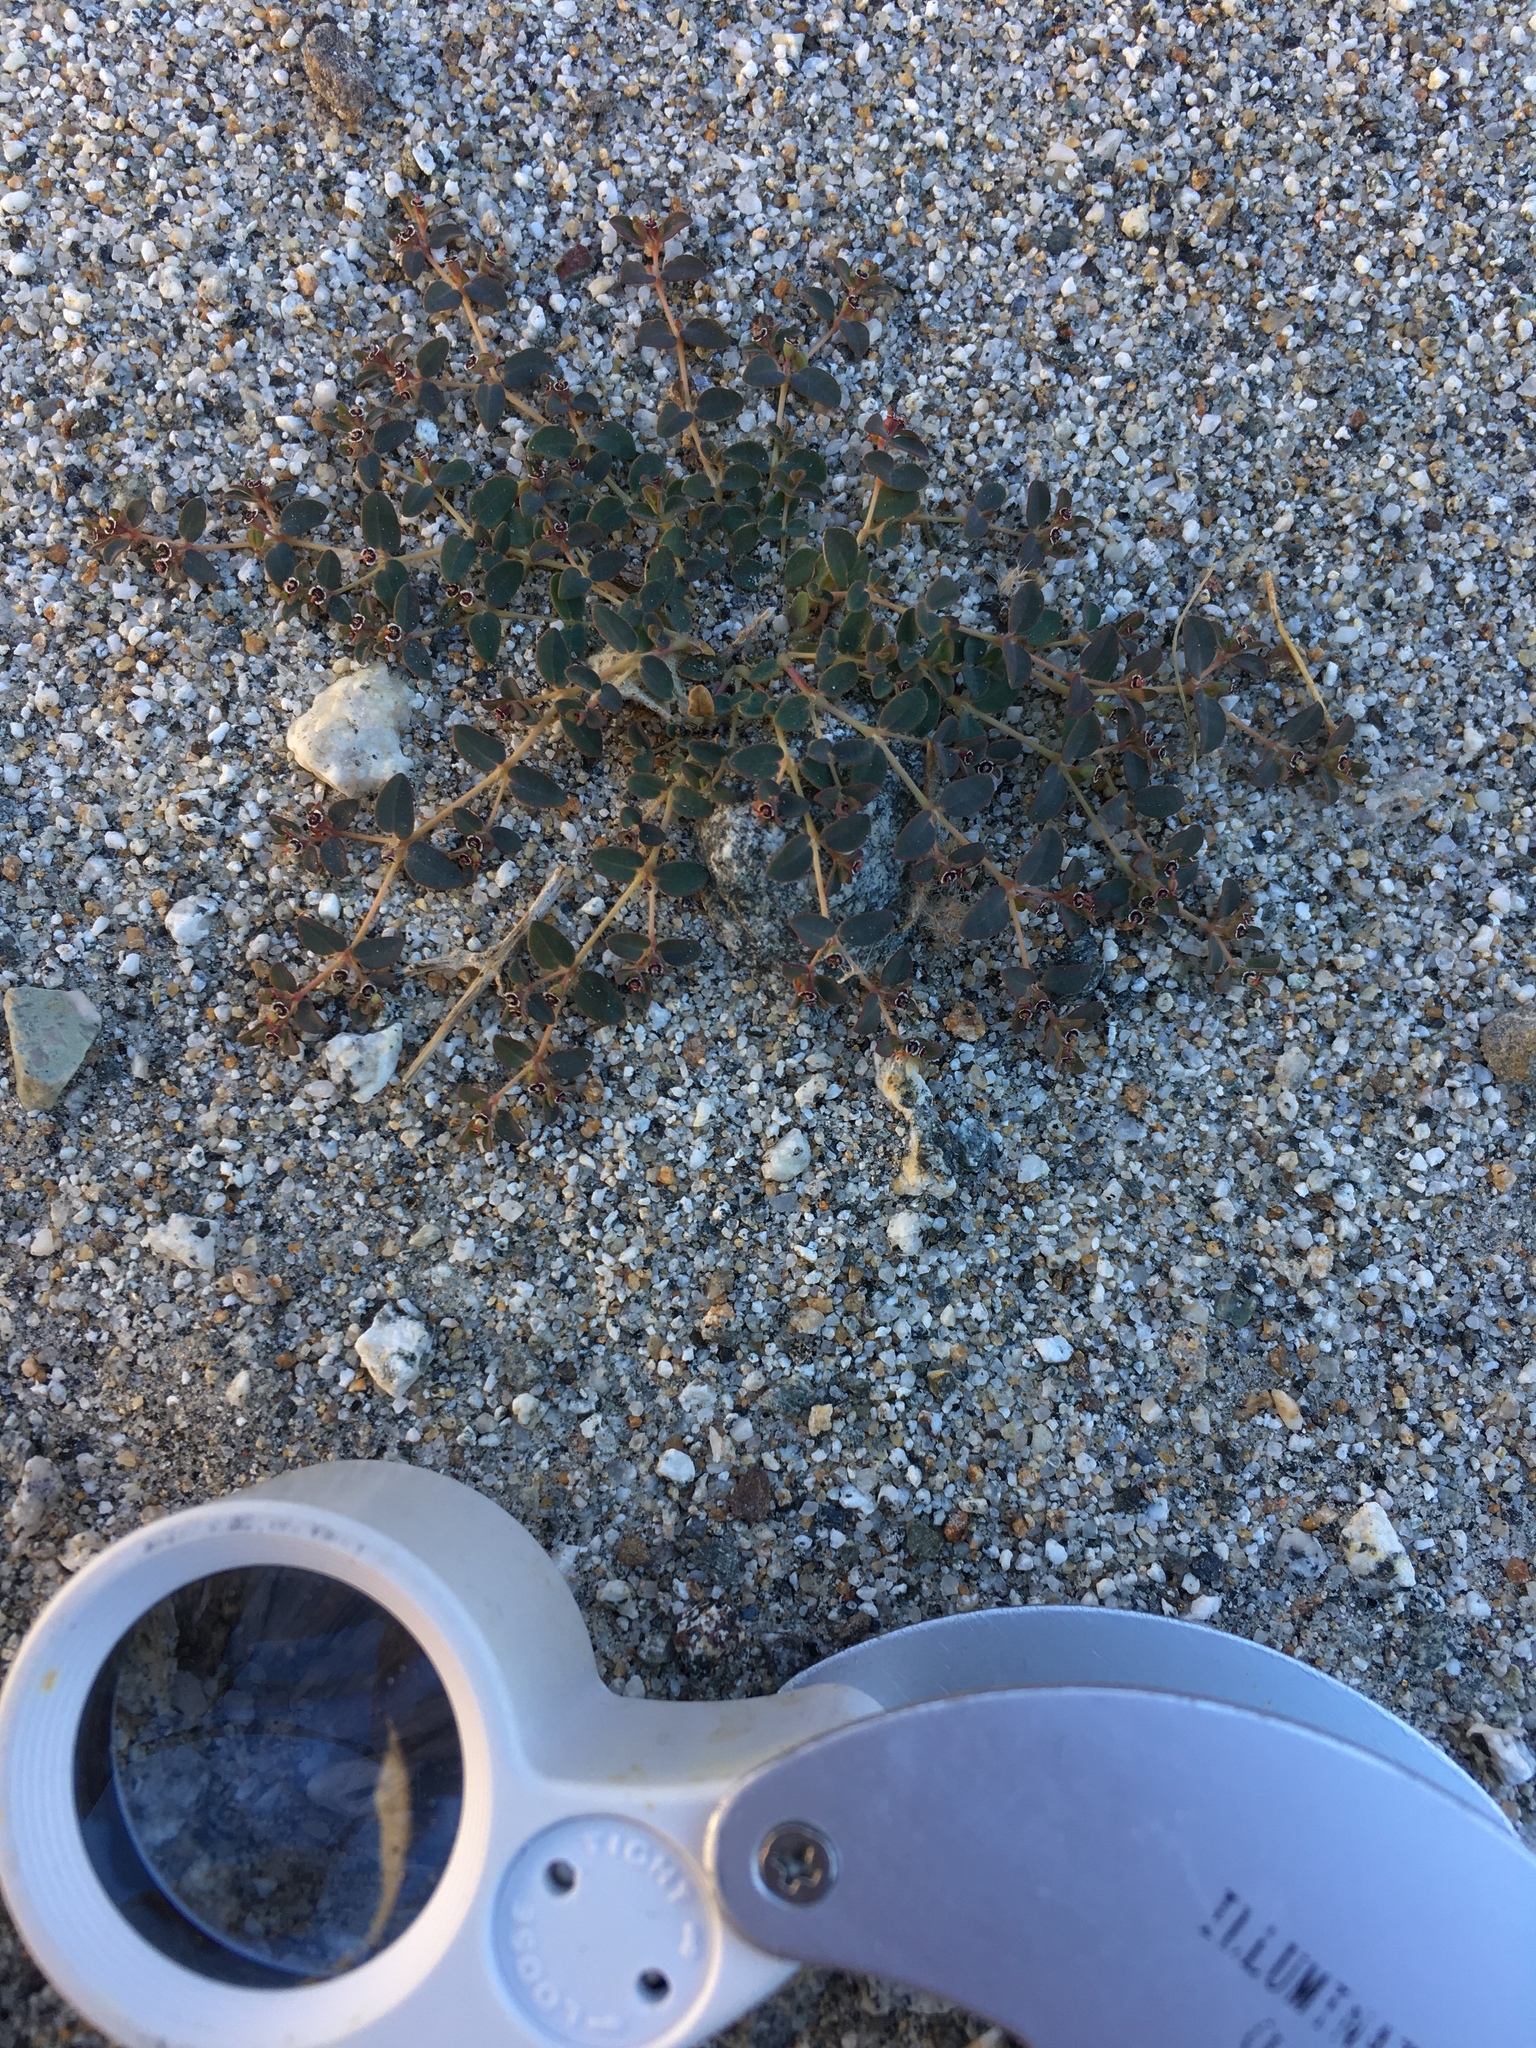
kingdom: Plantae
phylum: Tracheophyta
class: Magnoliopsida
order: Malpighiales
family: Euphorbiaceae
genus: Euphorbia
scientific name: Euphorbia polycarpa
